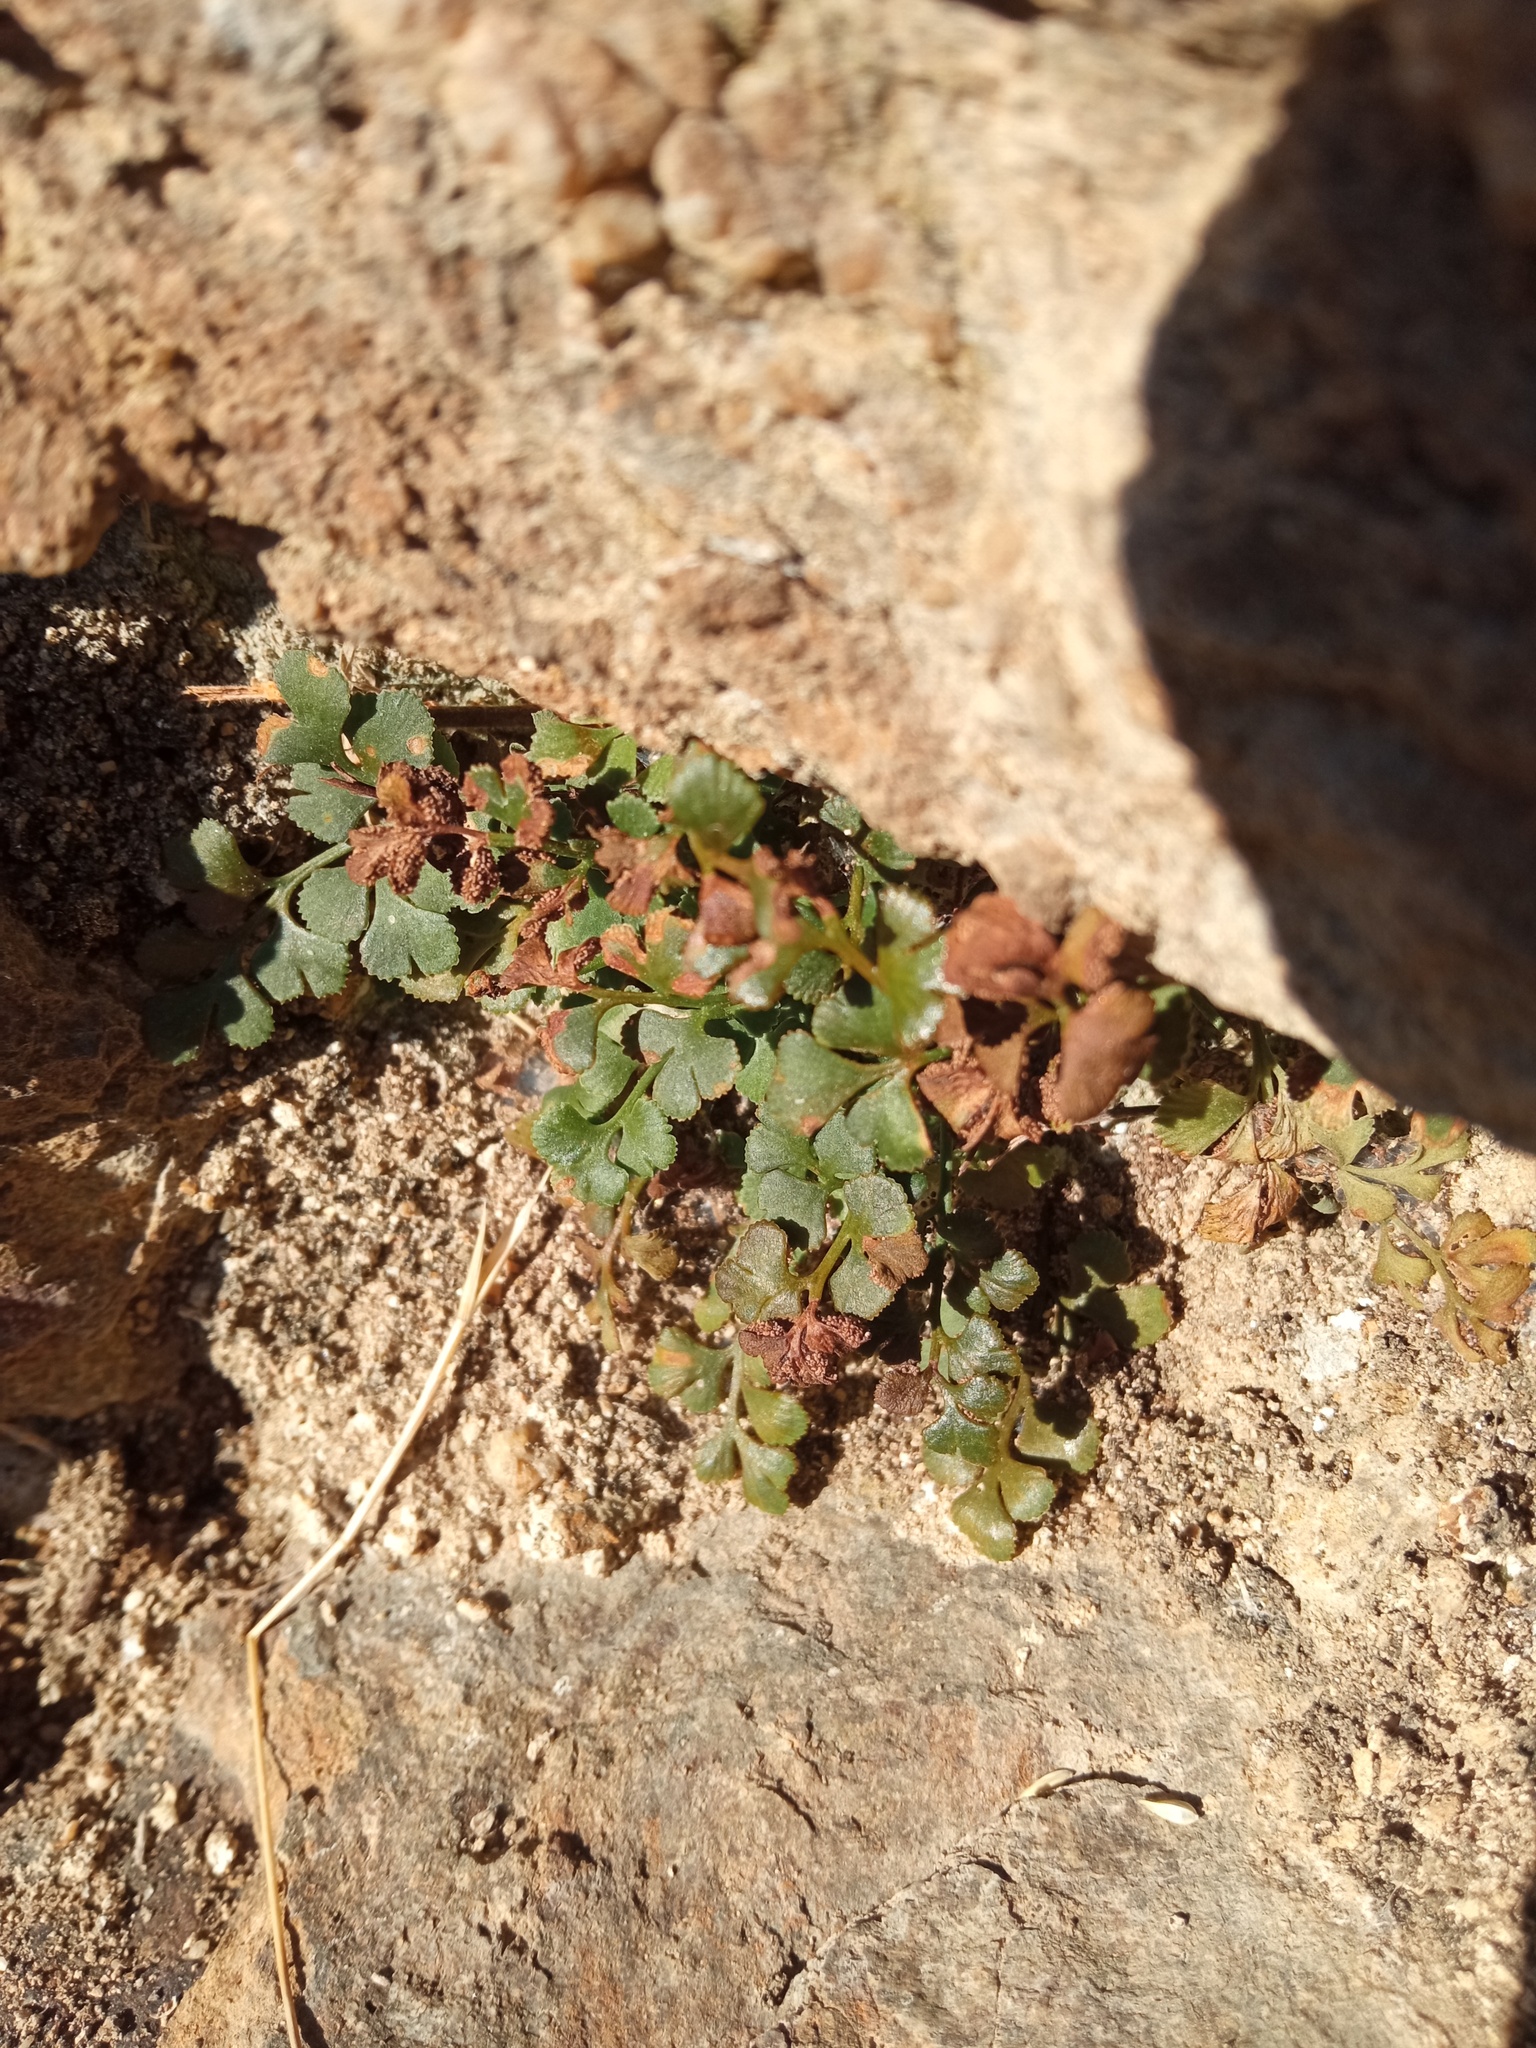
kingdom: Plantae
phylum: Tracheophyta
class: Polypodiopsida
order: Polypodiales
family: Aspleniaceae
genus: Asplenium
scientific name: Asplenium ruta-muraria
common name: Wall-rue
